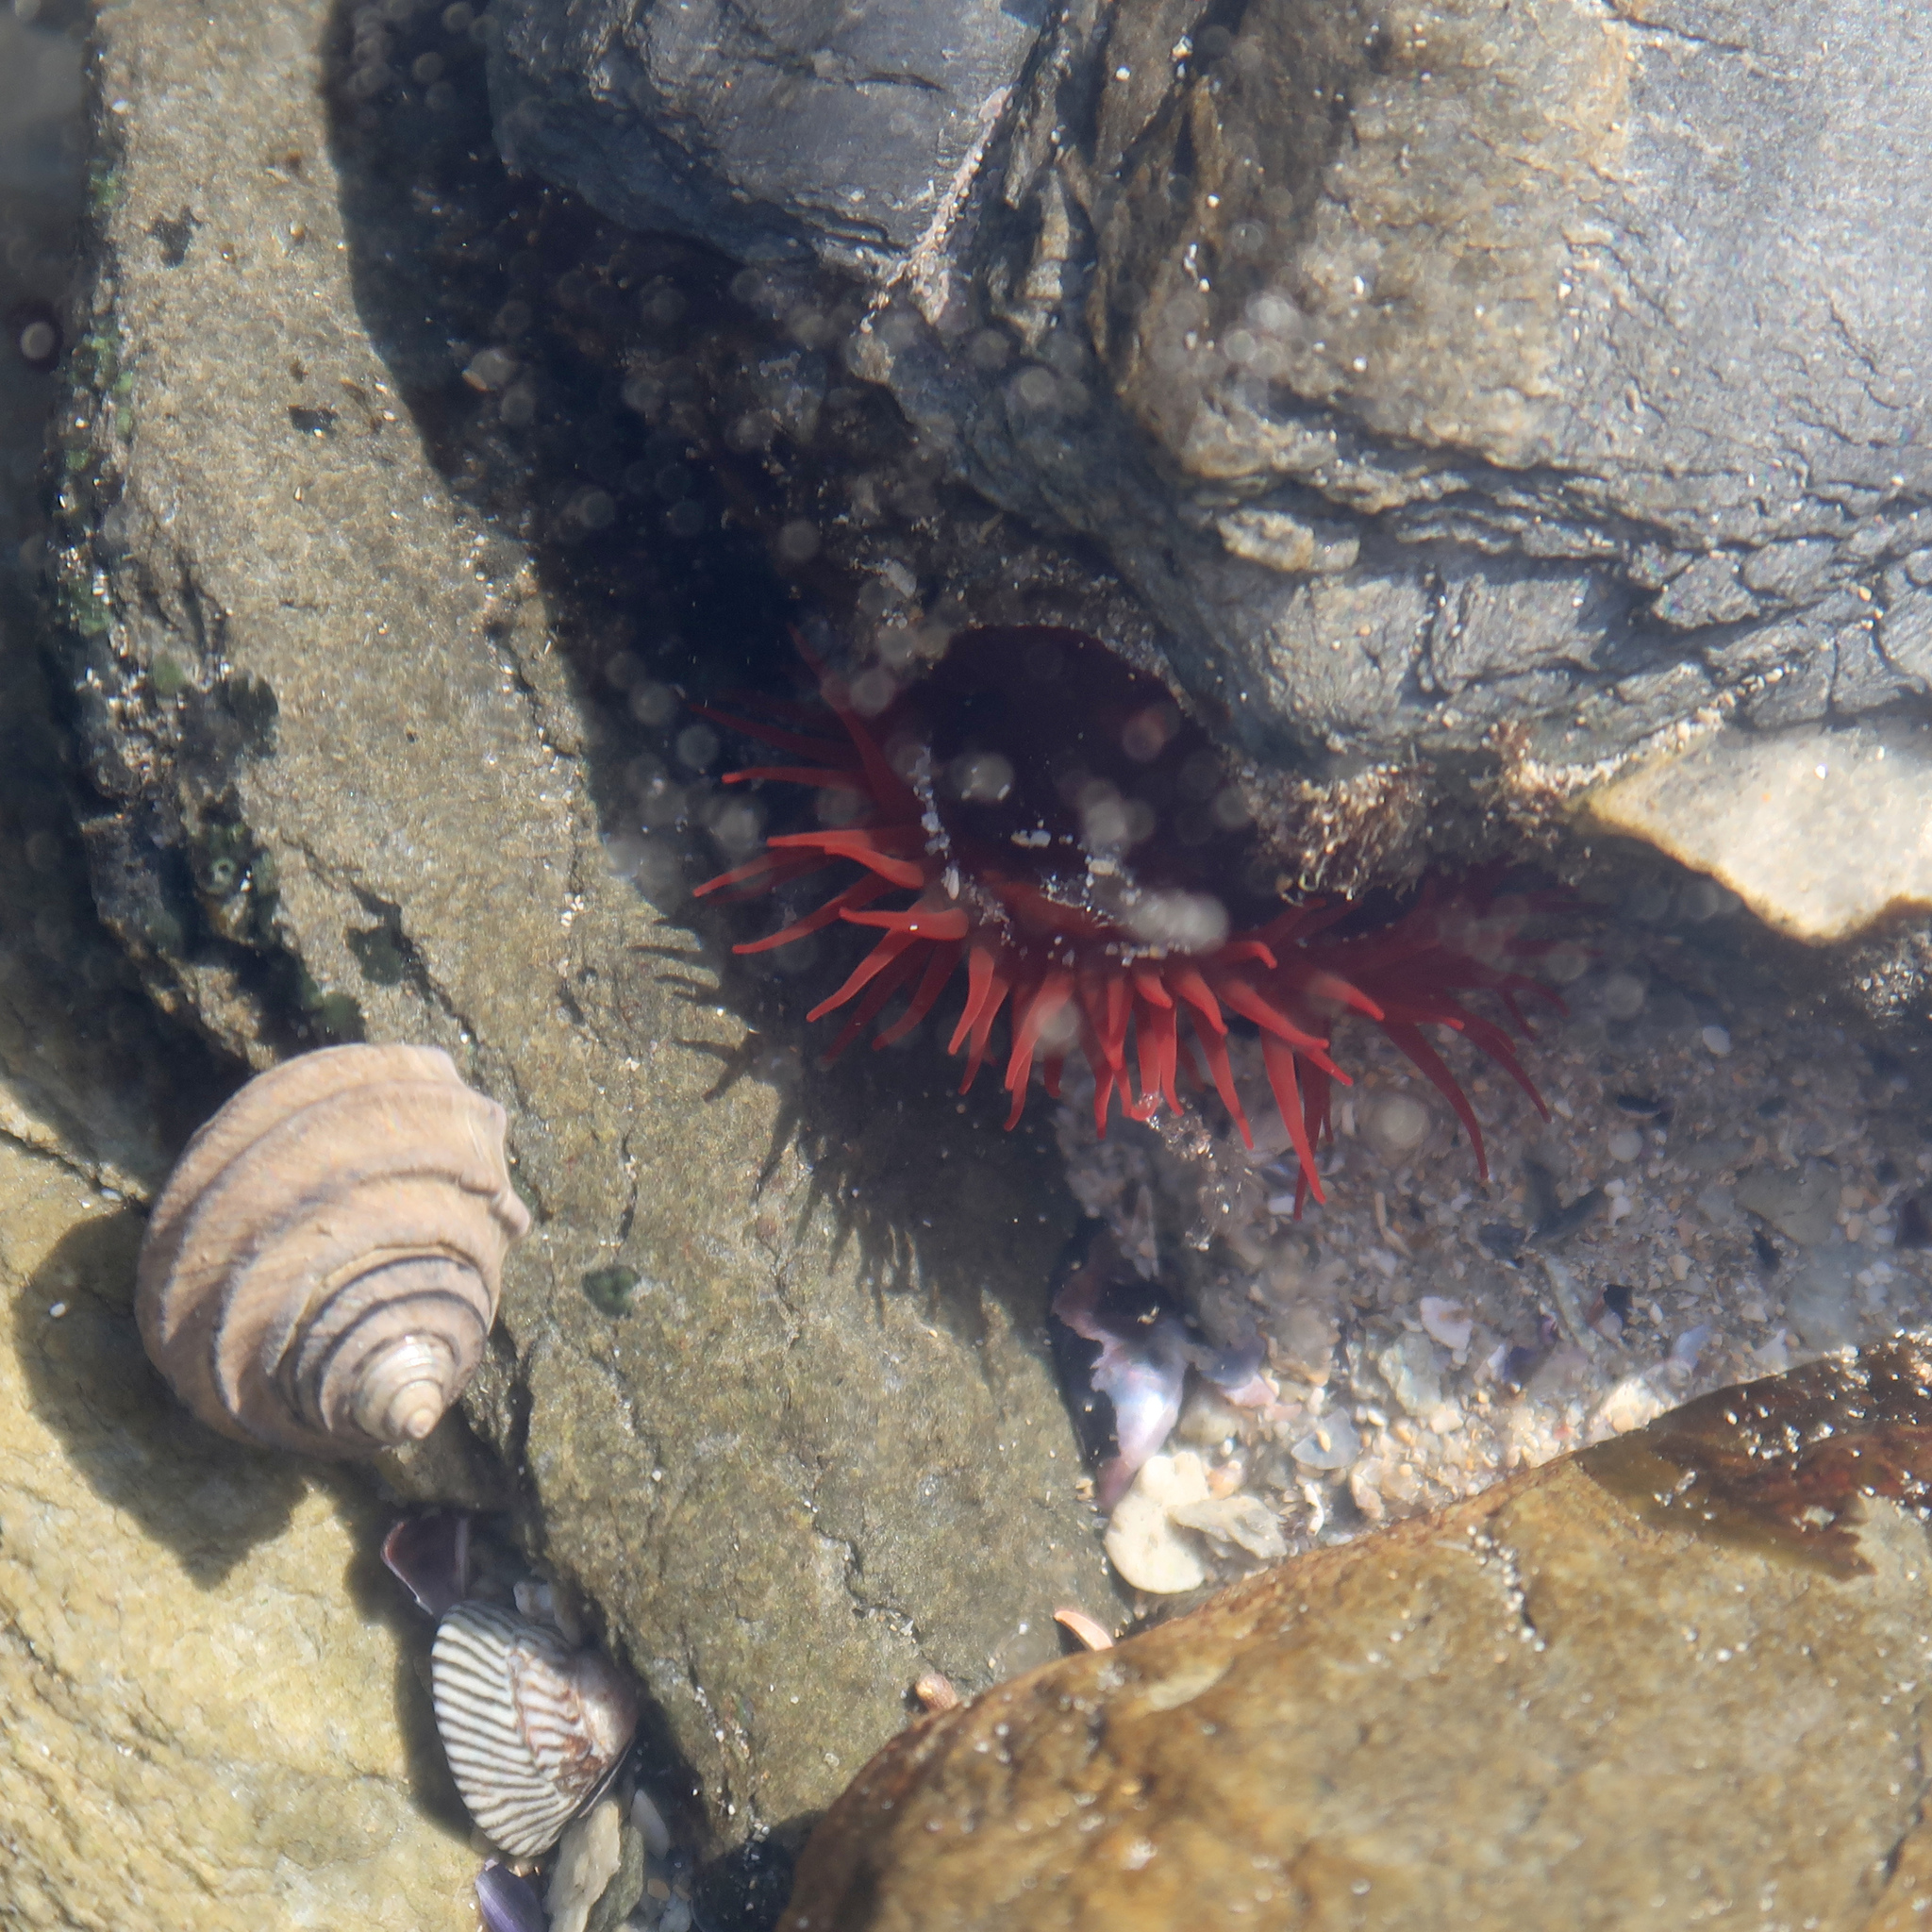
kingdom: Animalia
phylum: Cnidaria
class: Anthozoa
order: Actiniaria
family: Actiniidae
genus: Actinia
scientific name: Actinia tenebrosa
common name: Waratah anemone
